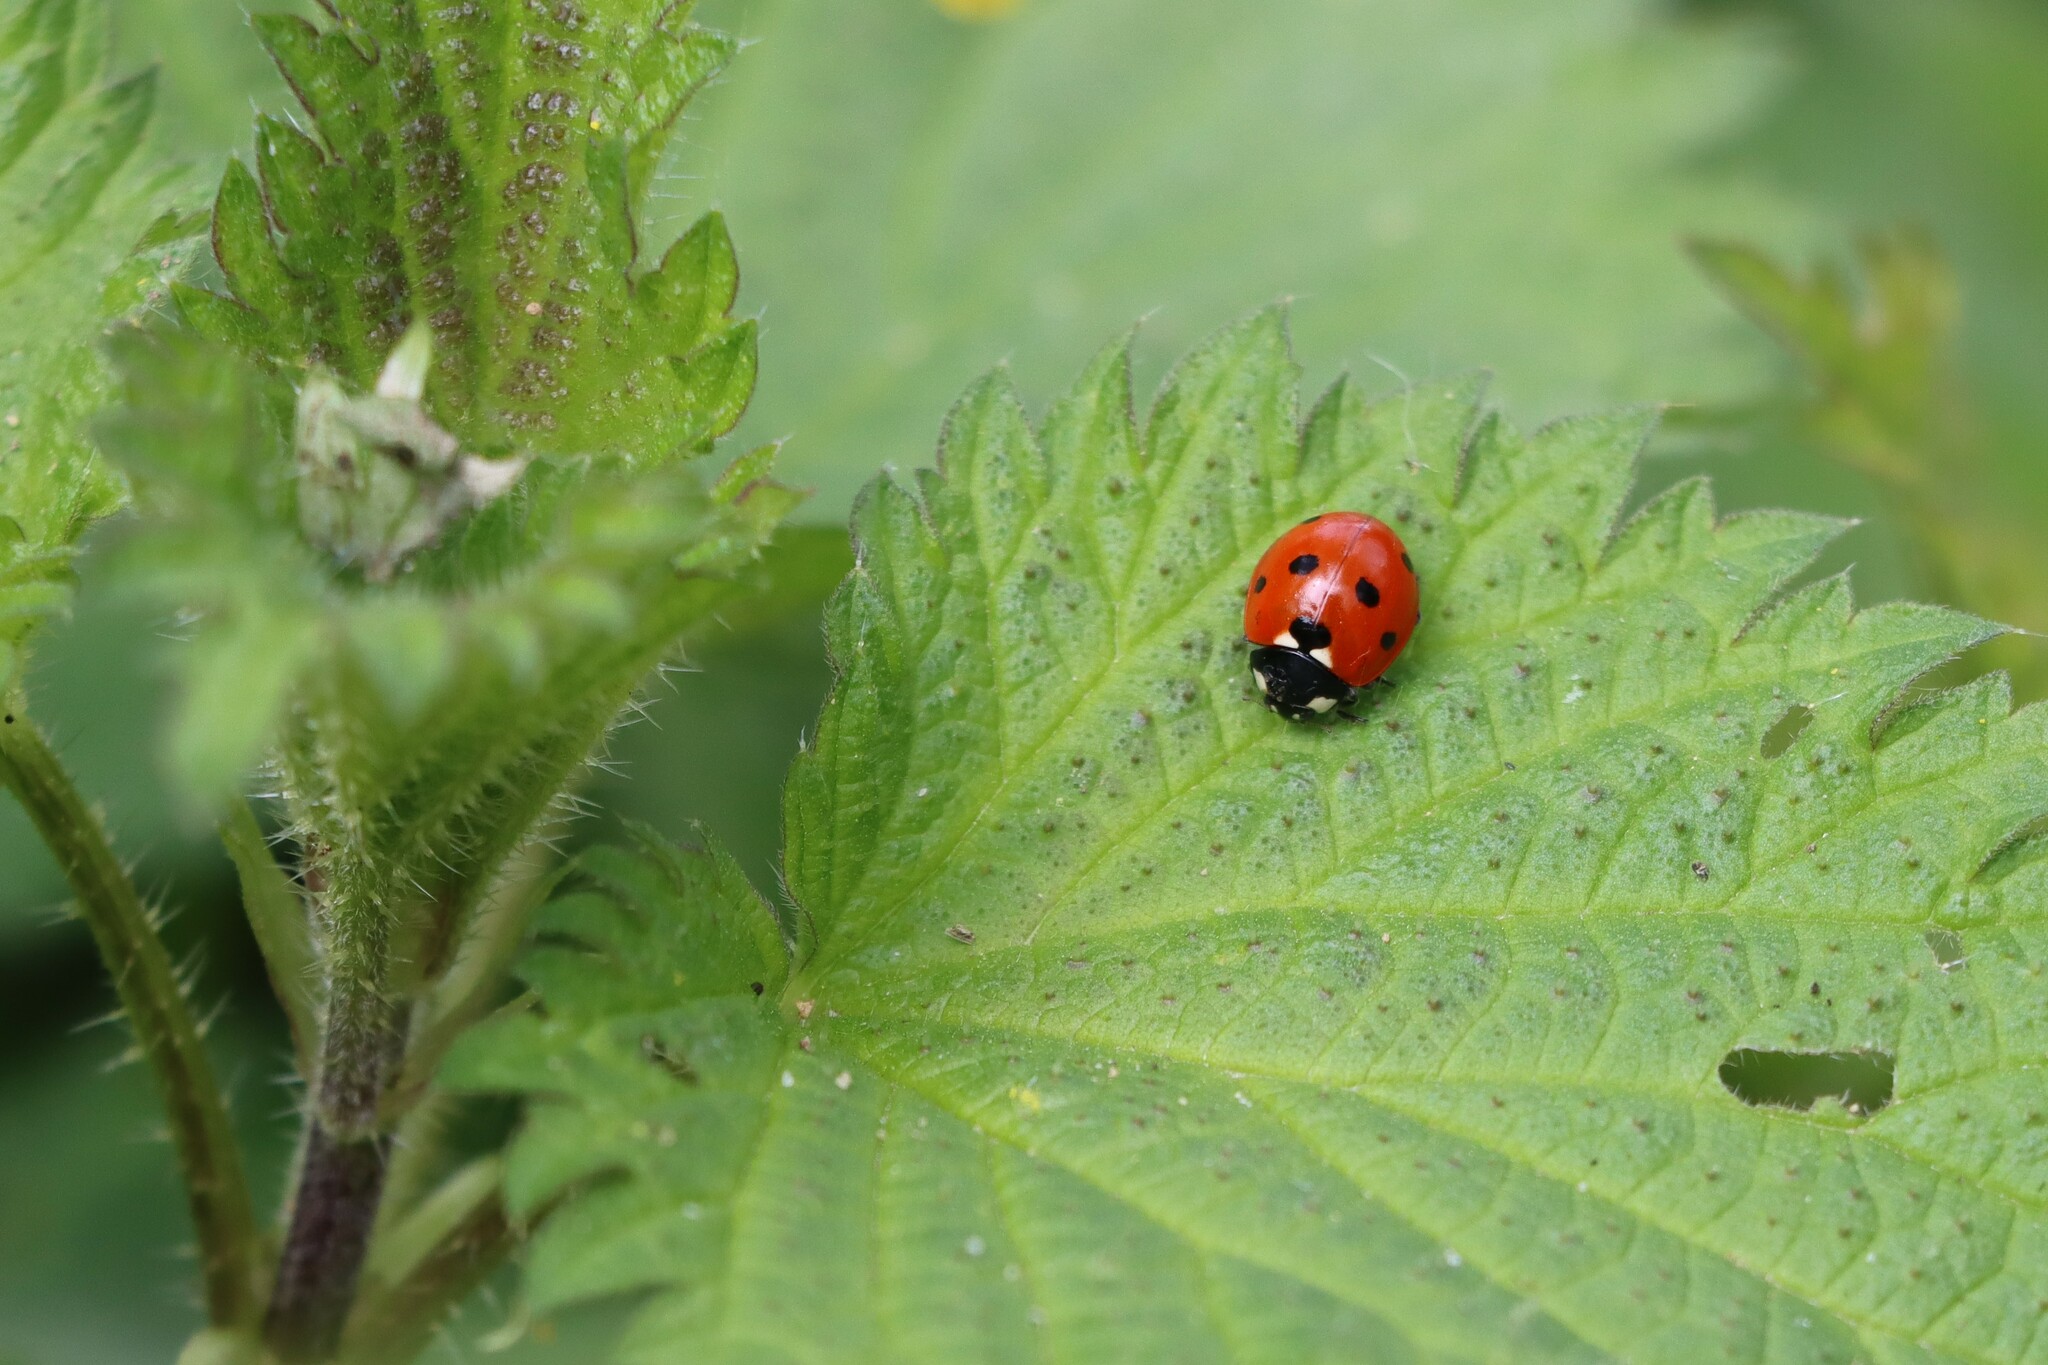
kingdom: Animalia
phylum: Arthropoda
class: Insecta
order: Coleoptera
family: Coccinellidae
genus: Coccinella
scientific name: Coccinella septempunctata
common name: Sevenspotted lady beetle
